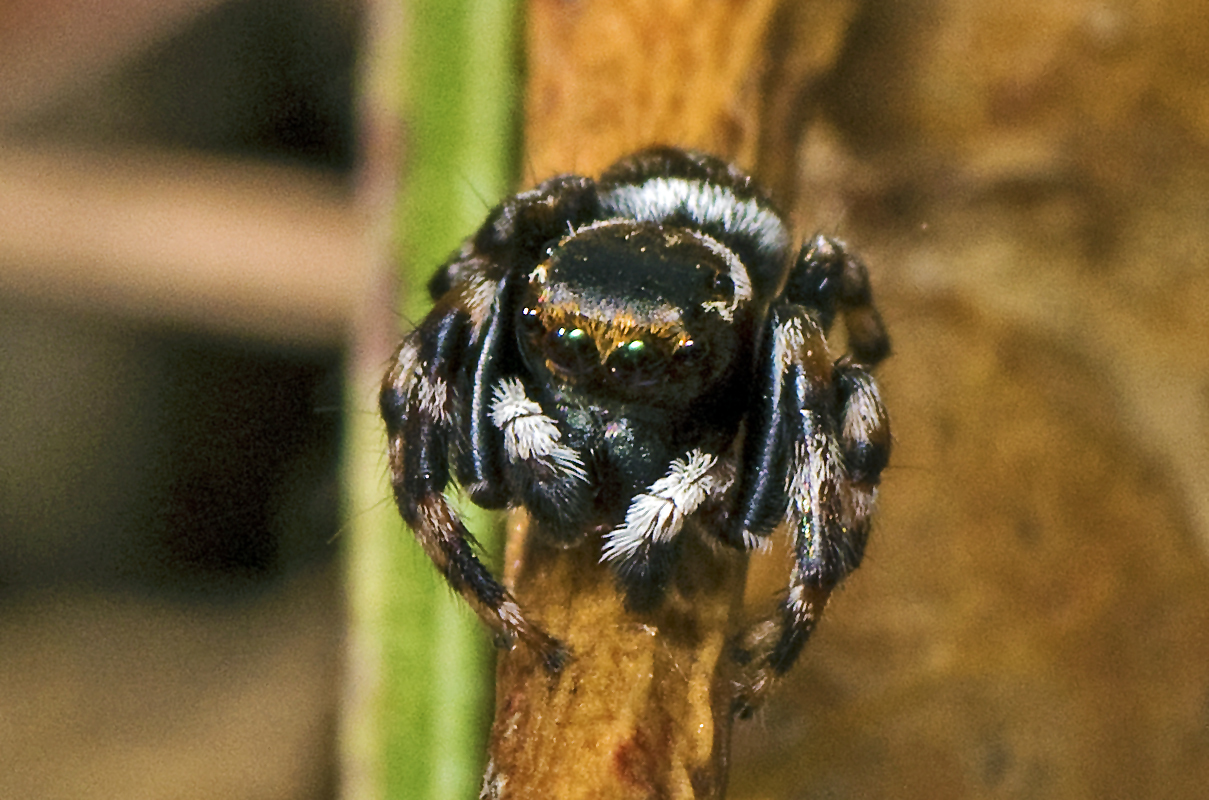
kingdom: Animalia
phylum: Arthropoda
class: Arachnida
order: Araneae
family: Salticidae
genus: Maratus
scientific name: Maratus scutulatus
